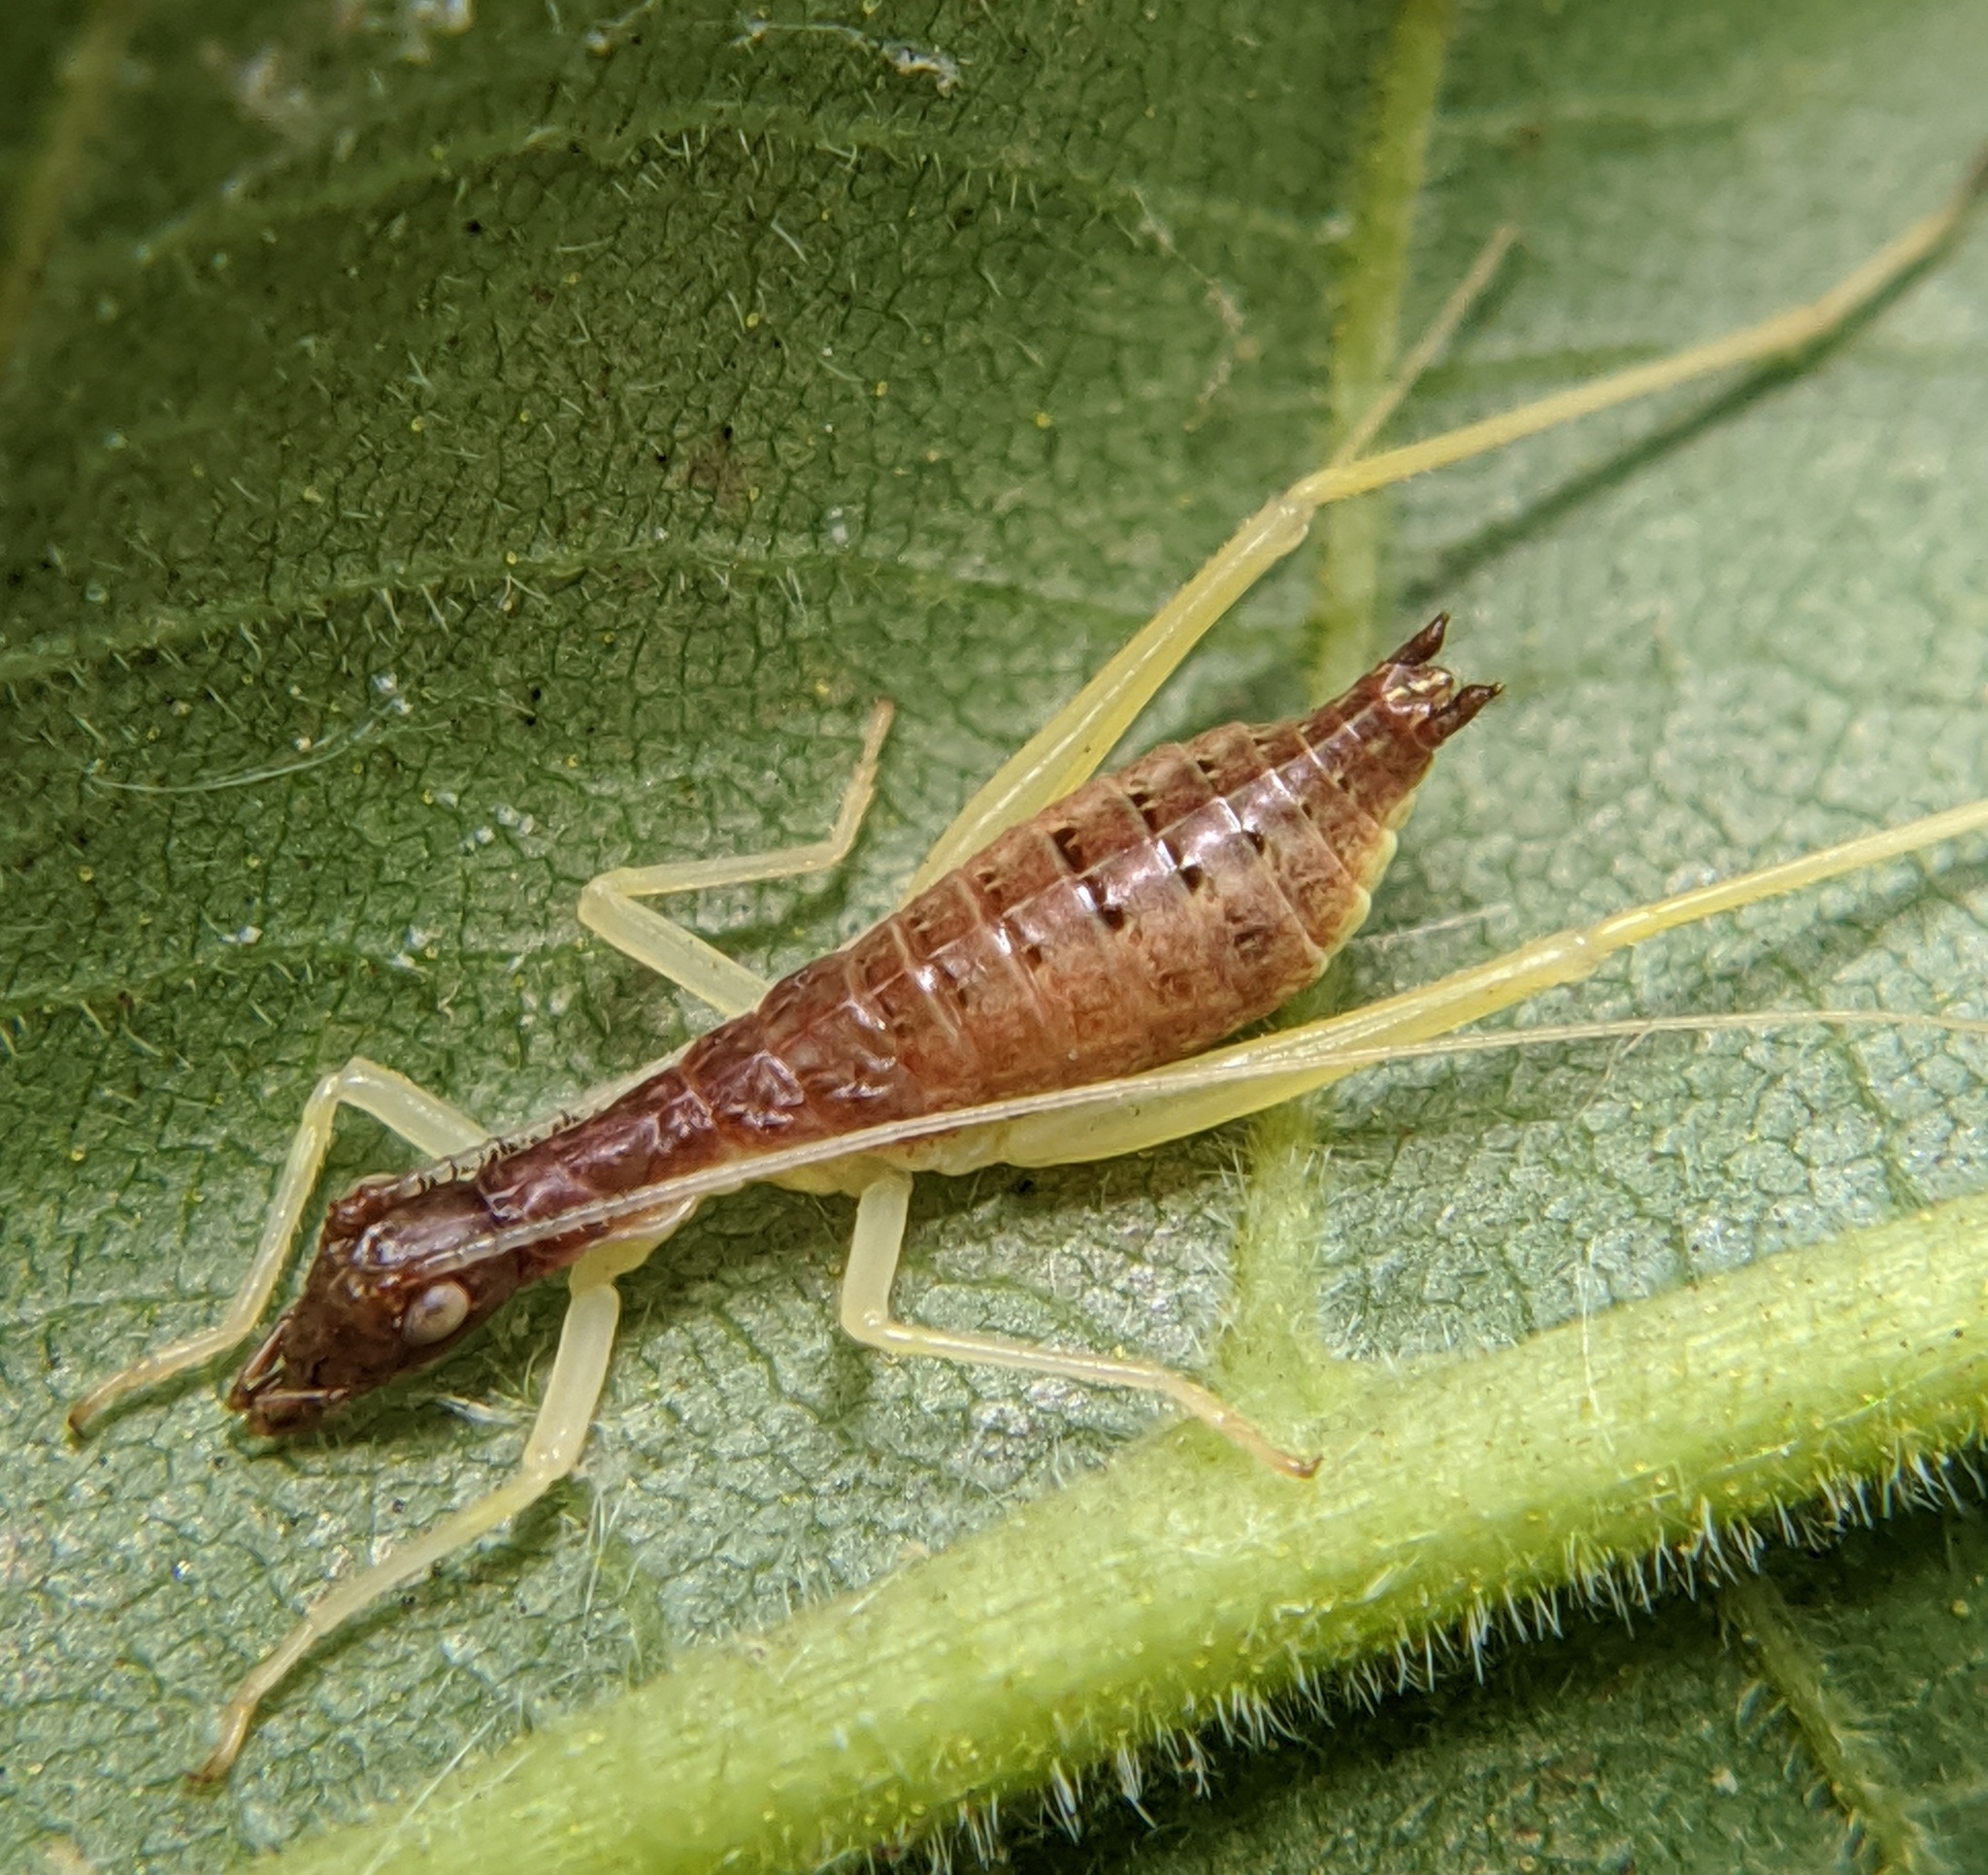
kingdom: Animalia
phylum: Arthropoda
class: Insecta
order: Orthoptera
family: Gryllidae
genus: Neoxabea
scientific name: Neoxabea bipunctata
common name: Two-spotted tree cricket
